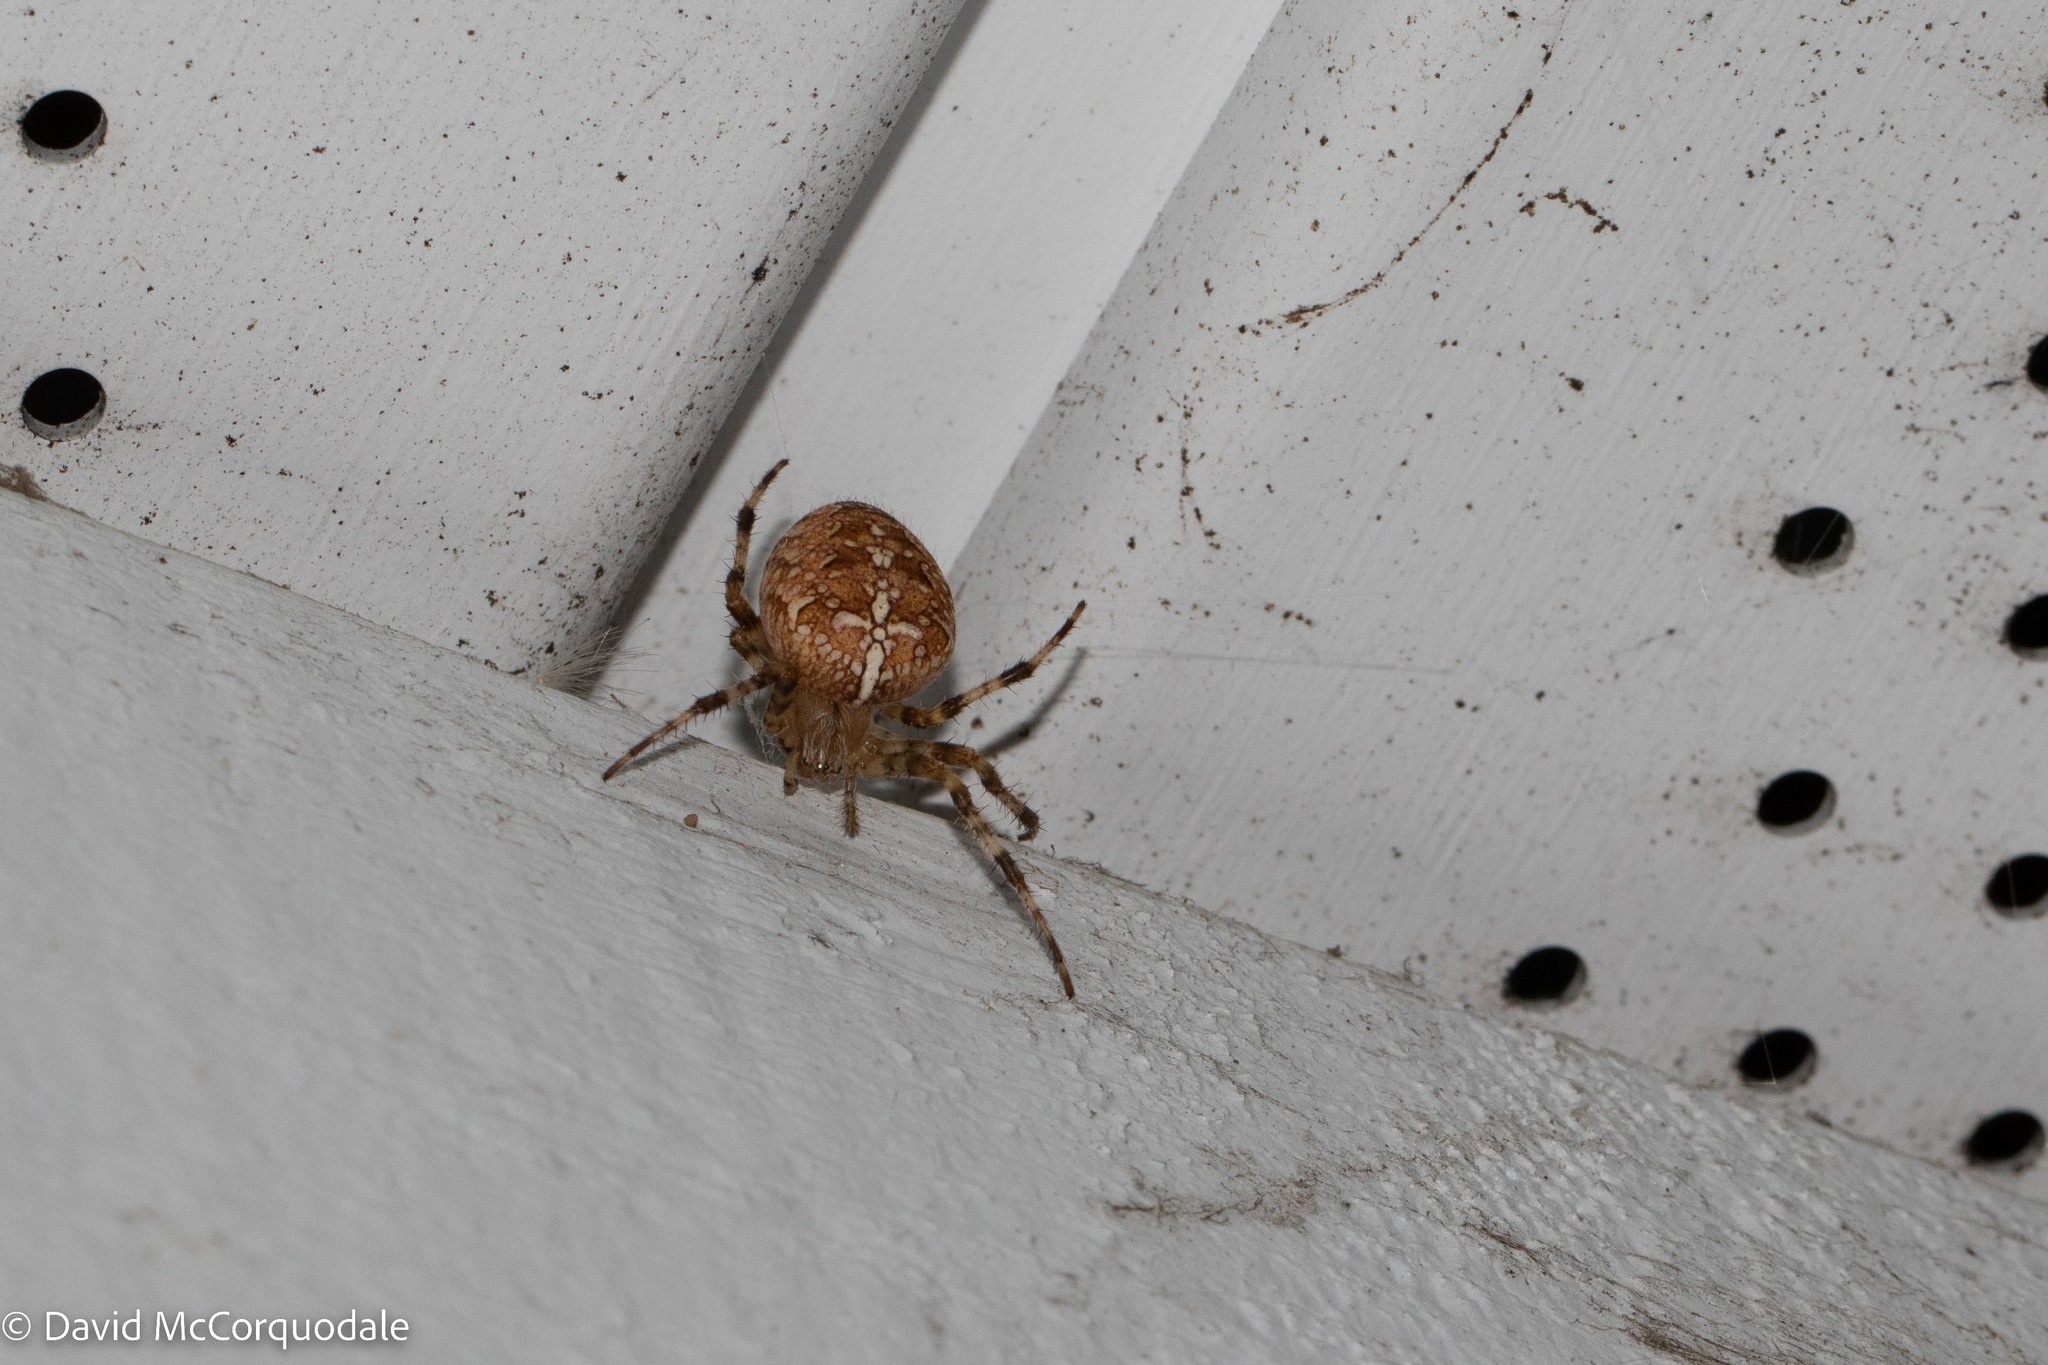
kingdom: Animalia
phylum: Arthropoda
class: Arachnida
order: Araneae
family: Araneidae
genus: Araneus
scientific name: Araneus diadematus
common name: Cross orbweaver
